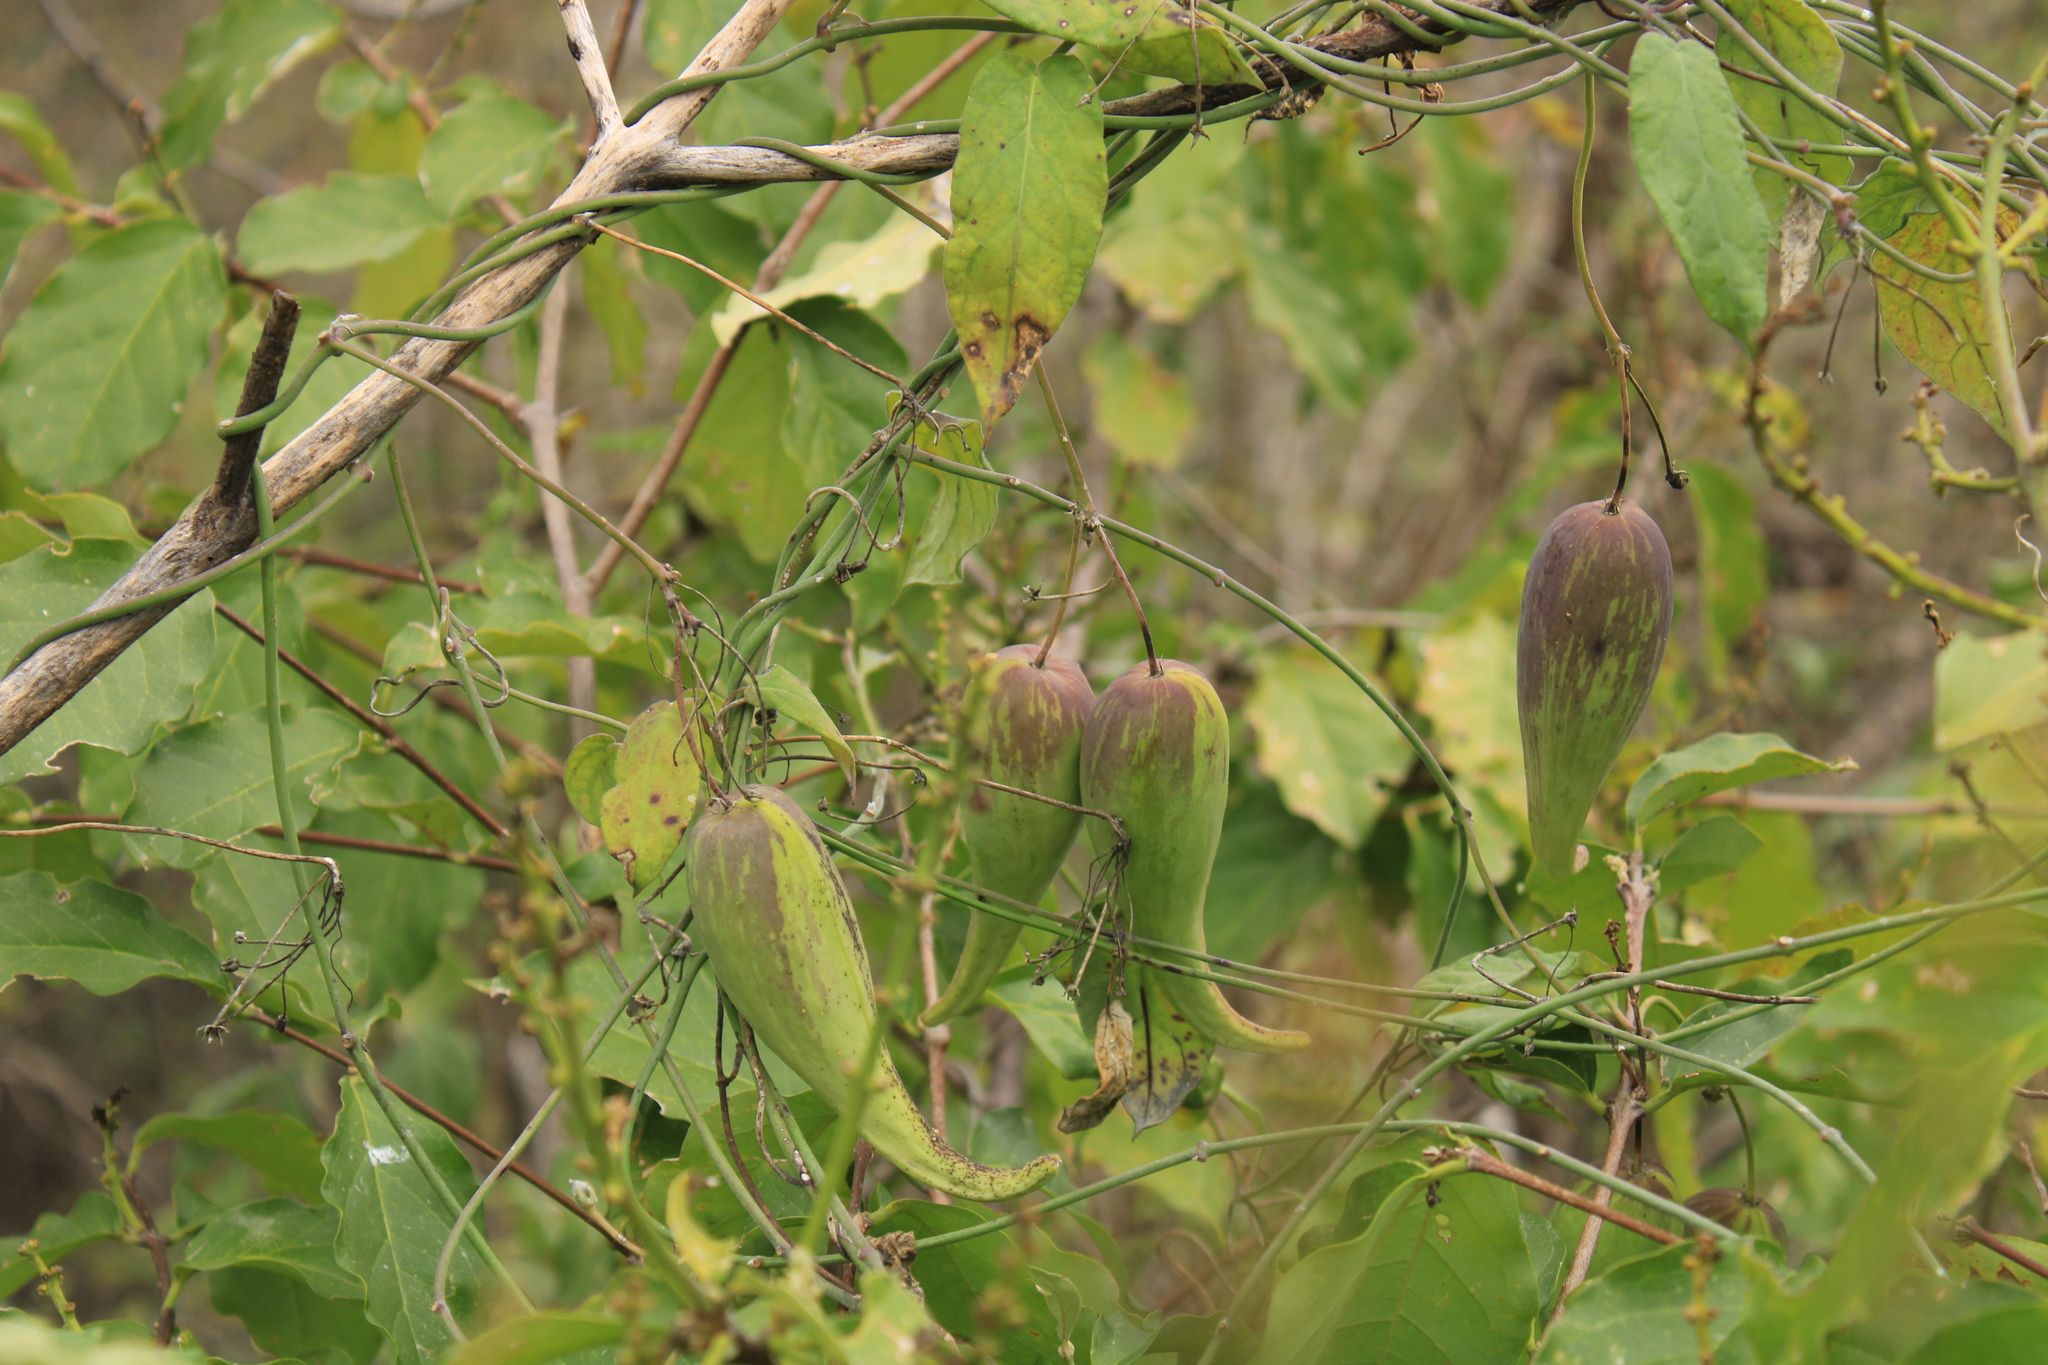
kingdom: Plantae
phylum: Tracheophyta
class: Magnoliopsida
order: Gentianales
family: Apocynaceae
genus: Funastrum
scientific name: Funastrum pannosum
